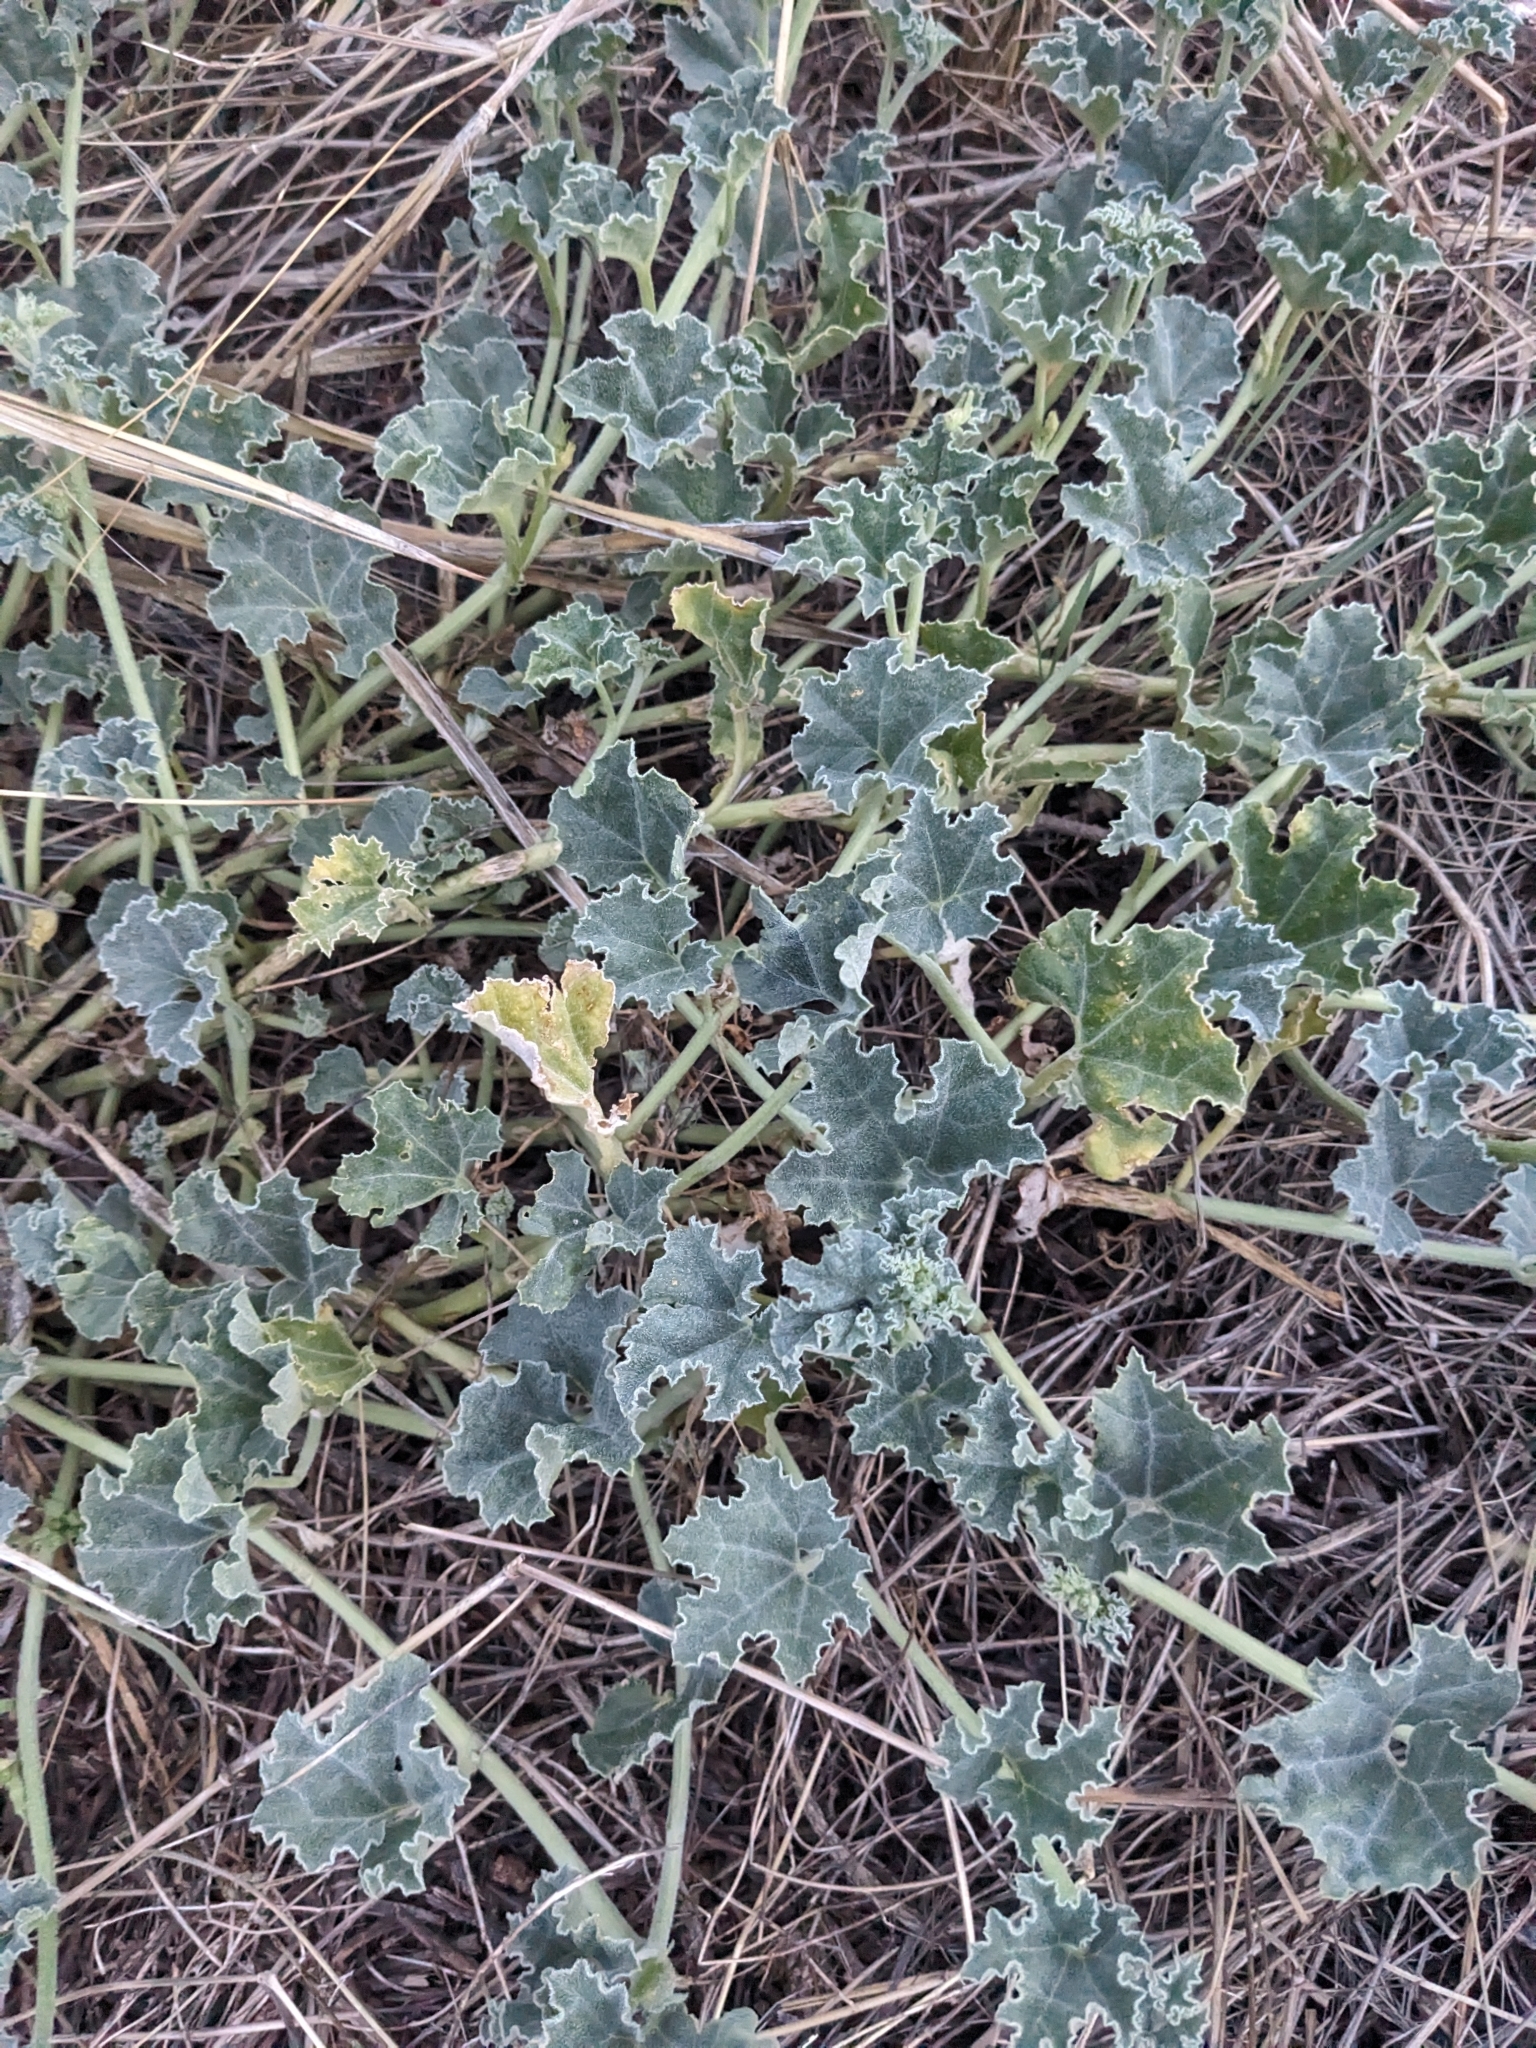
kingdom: Plantae
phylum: Tracheophyta
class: Magnoliopsida
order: Cucurbitales
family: Cucurbitaceae
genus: Apodanthera
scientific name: Apodanthera undulata
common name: Melon-loco
